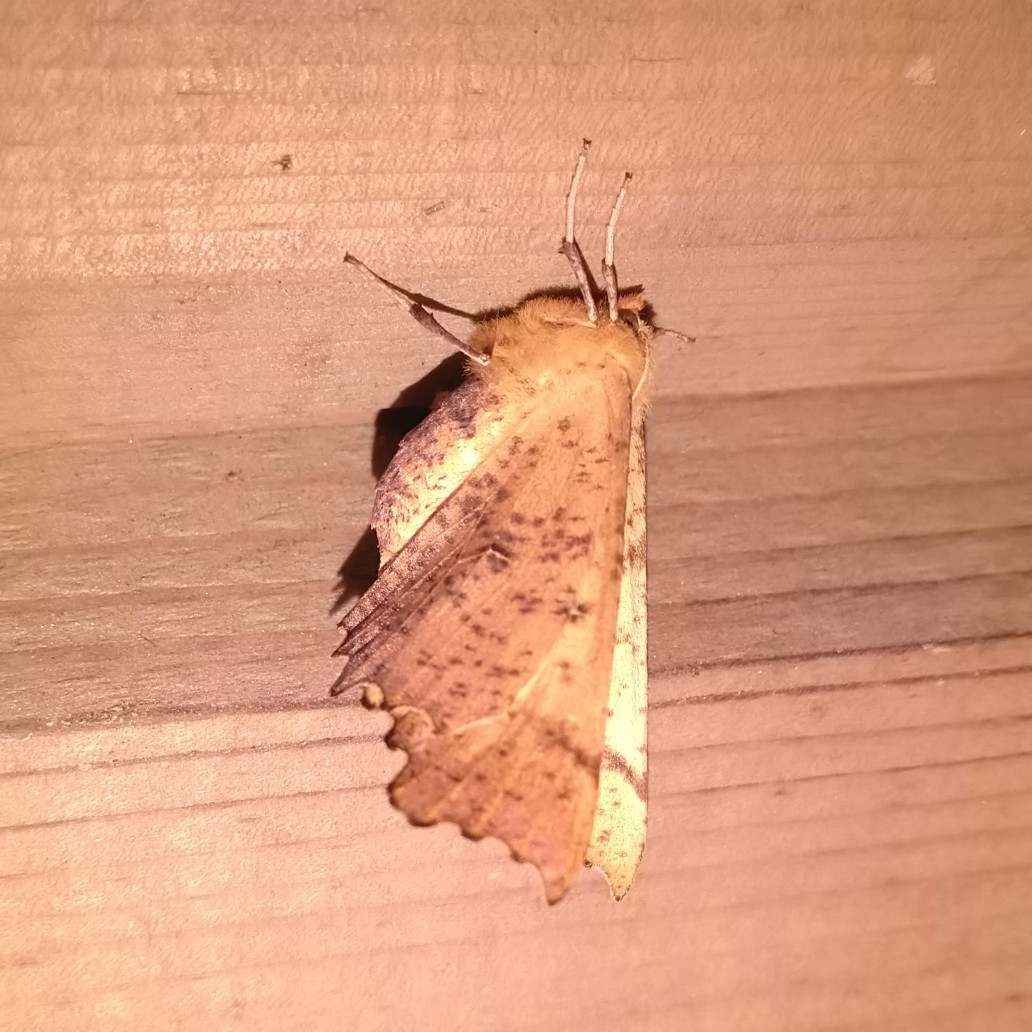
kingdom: Animalia
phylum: Arthropoda
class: Insecta
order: Lepidoptera
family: Geometridae
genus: Ennomos
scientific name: Ennomos autumnaria
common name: Large thorn
